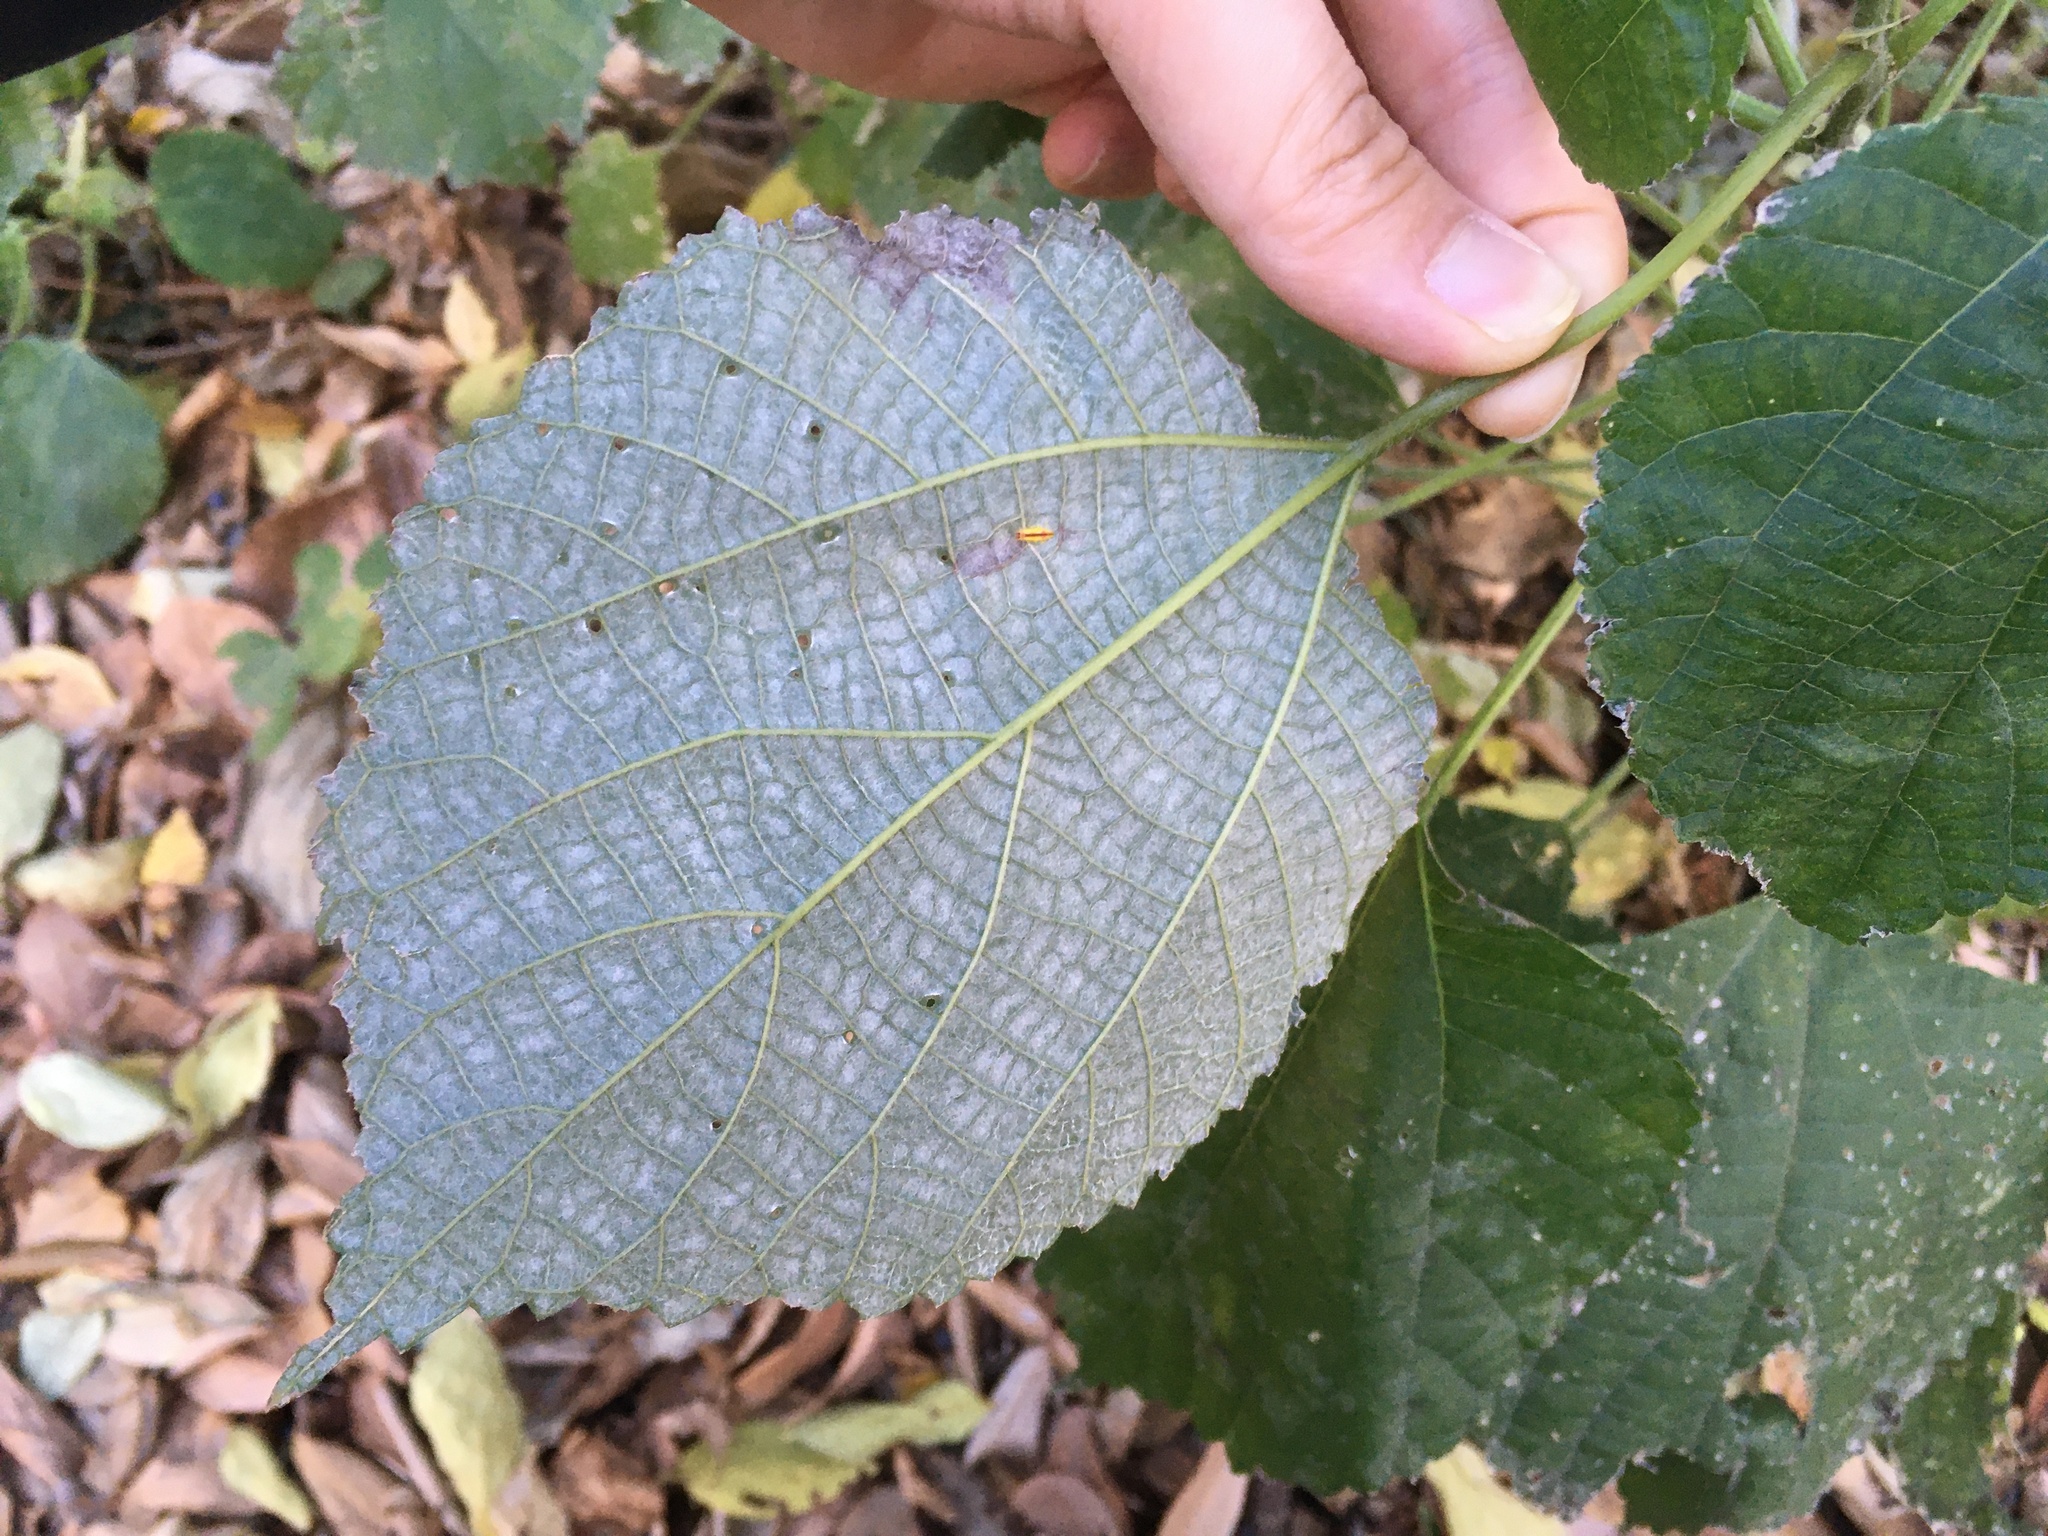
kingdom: Plantae
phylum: Tracheophyta
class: Magnoliopsida
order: Rosales
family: Urticaceae
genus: Boehmeria
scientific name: Boehmeria nivea
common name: Ramie chinese grass
